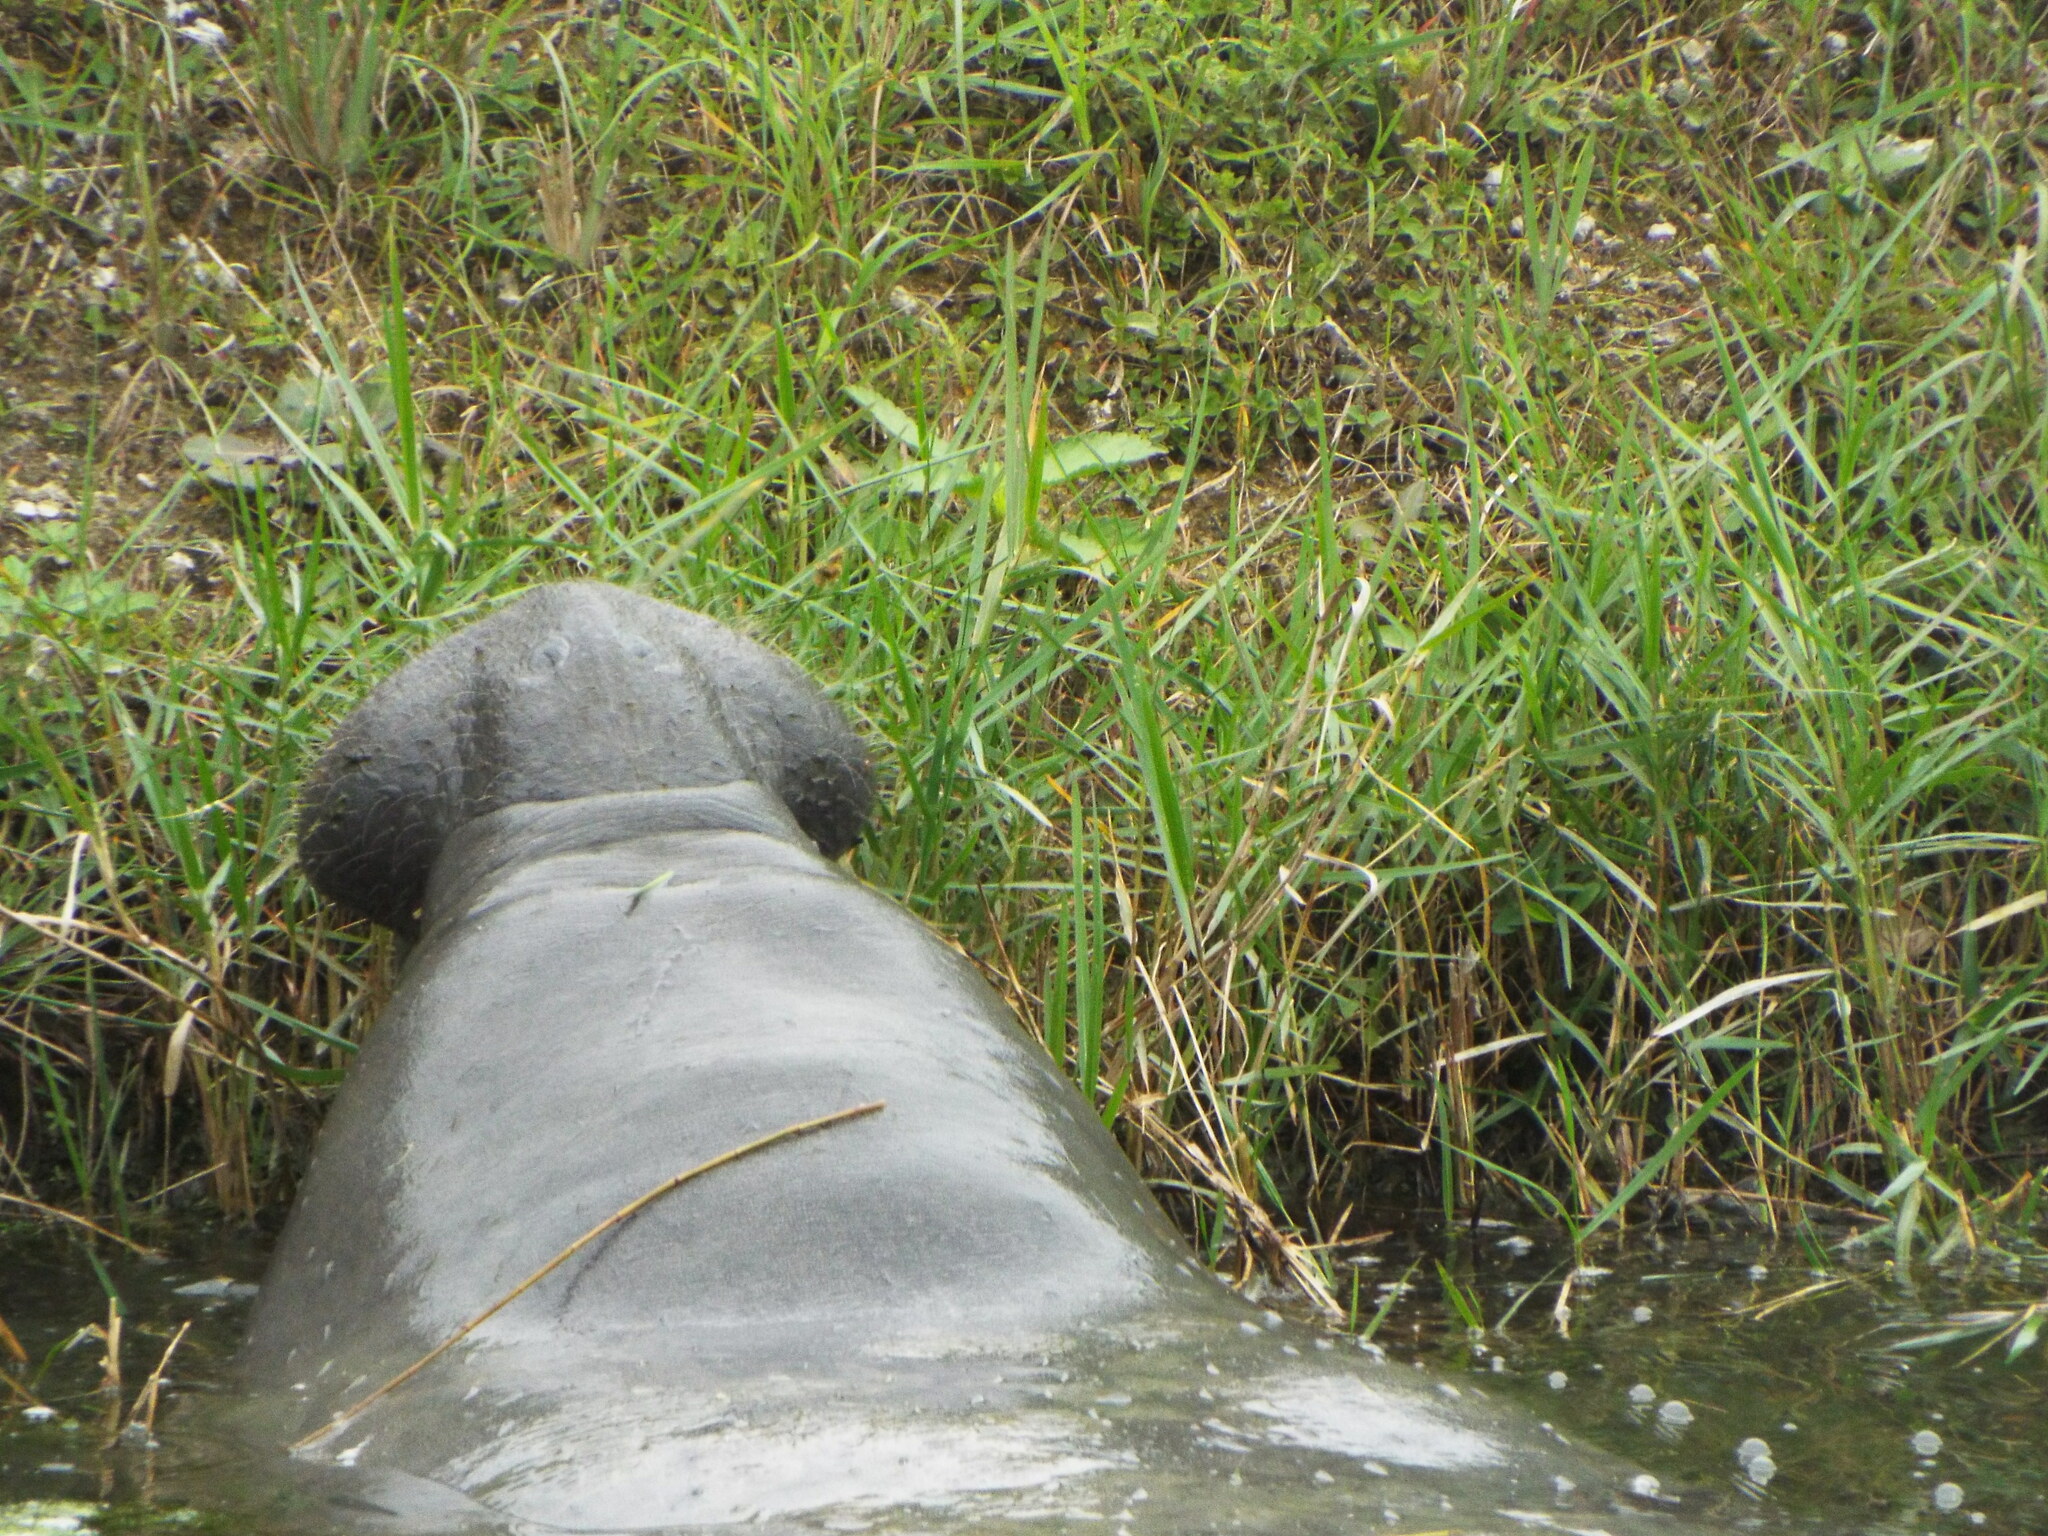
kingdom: Animalia
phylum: Chordata
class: Mammalia
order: Sirenia
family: Trichechidae
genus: Trichechus
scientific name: Trichechus manatus
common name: West indian manatee
